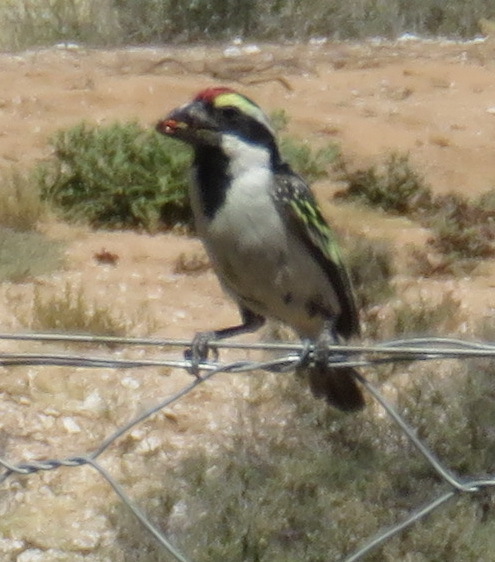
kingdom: Animalia
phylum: Chordata
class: Aves
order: Piciformes
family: Lybiidae
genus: Tricholaema
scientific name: Tricholaema leucomelas
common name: Acacia pied barbet
